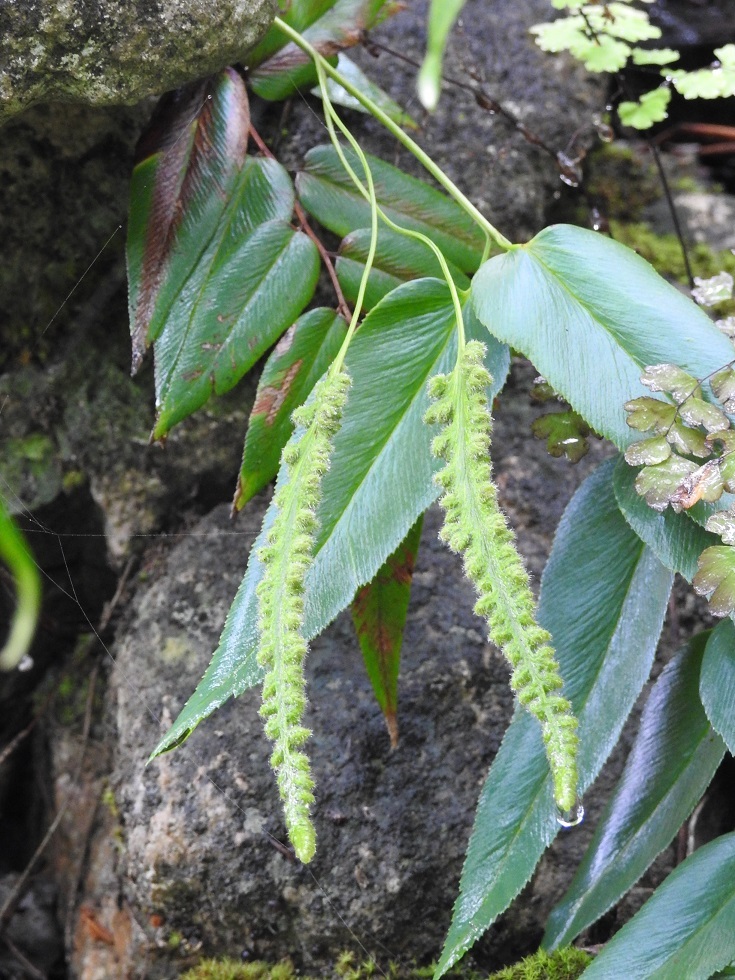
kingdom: Plantae
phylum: Tracheophyta
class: Polypodiopsida
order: Schizaeales
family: Anemiaceae
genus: Anemia
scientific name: Anemia speciosa
